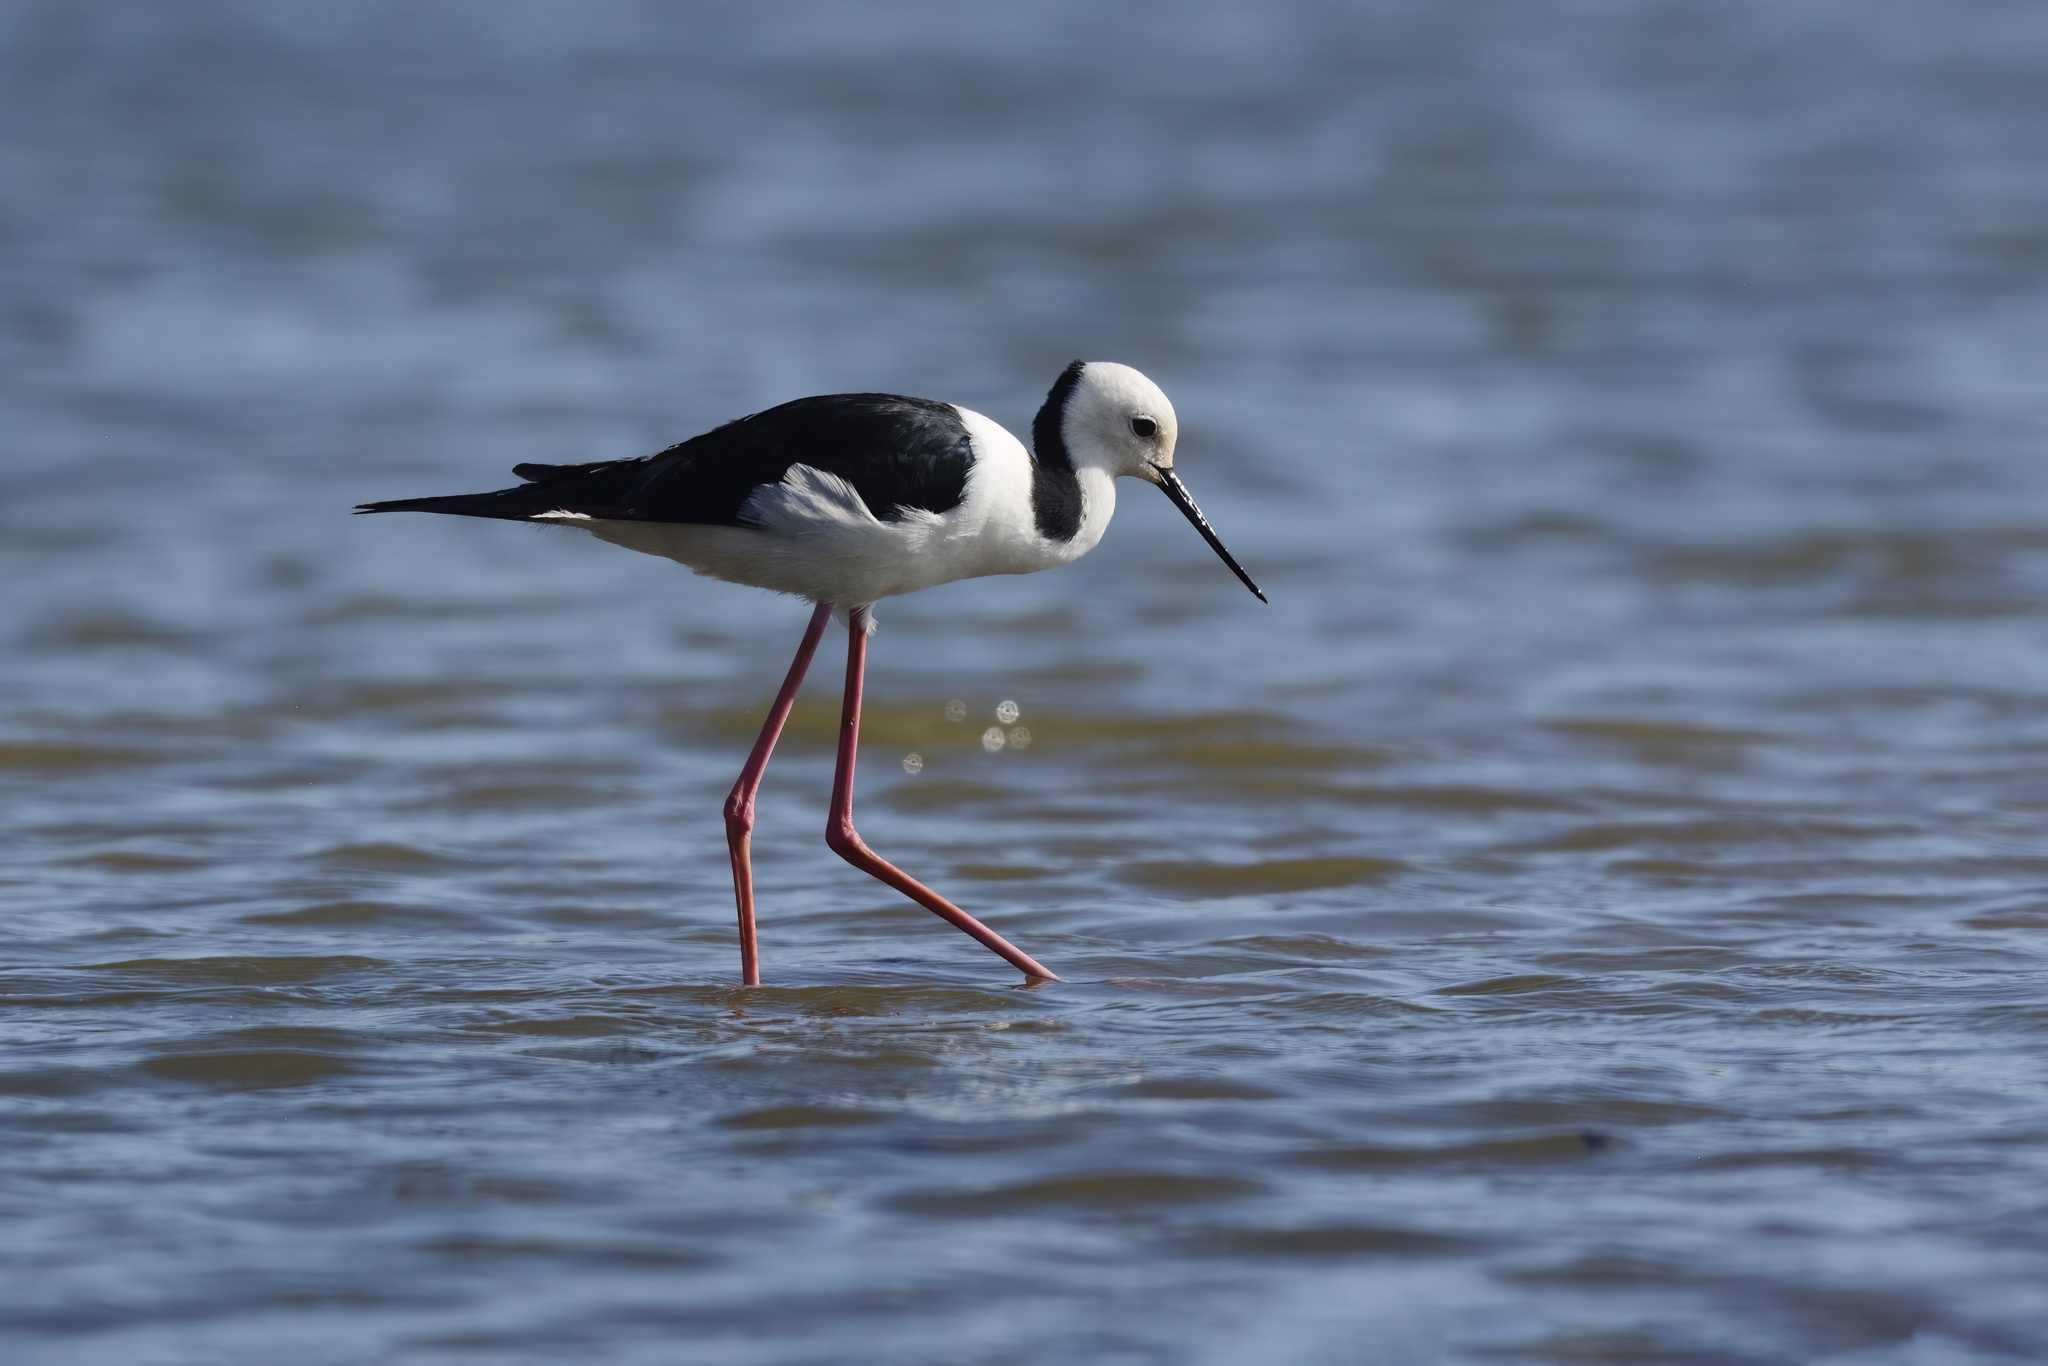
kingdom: Animalia
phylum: Chordata
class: Aves
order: Charadriiformes
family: Recurvirostridae
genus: Himantopus
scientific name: Himantopus leucocephalus
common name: White-headed stilt
